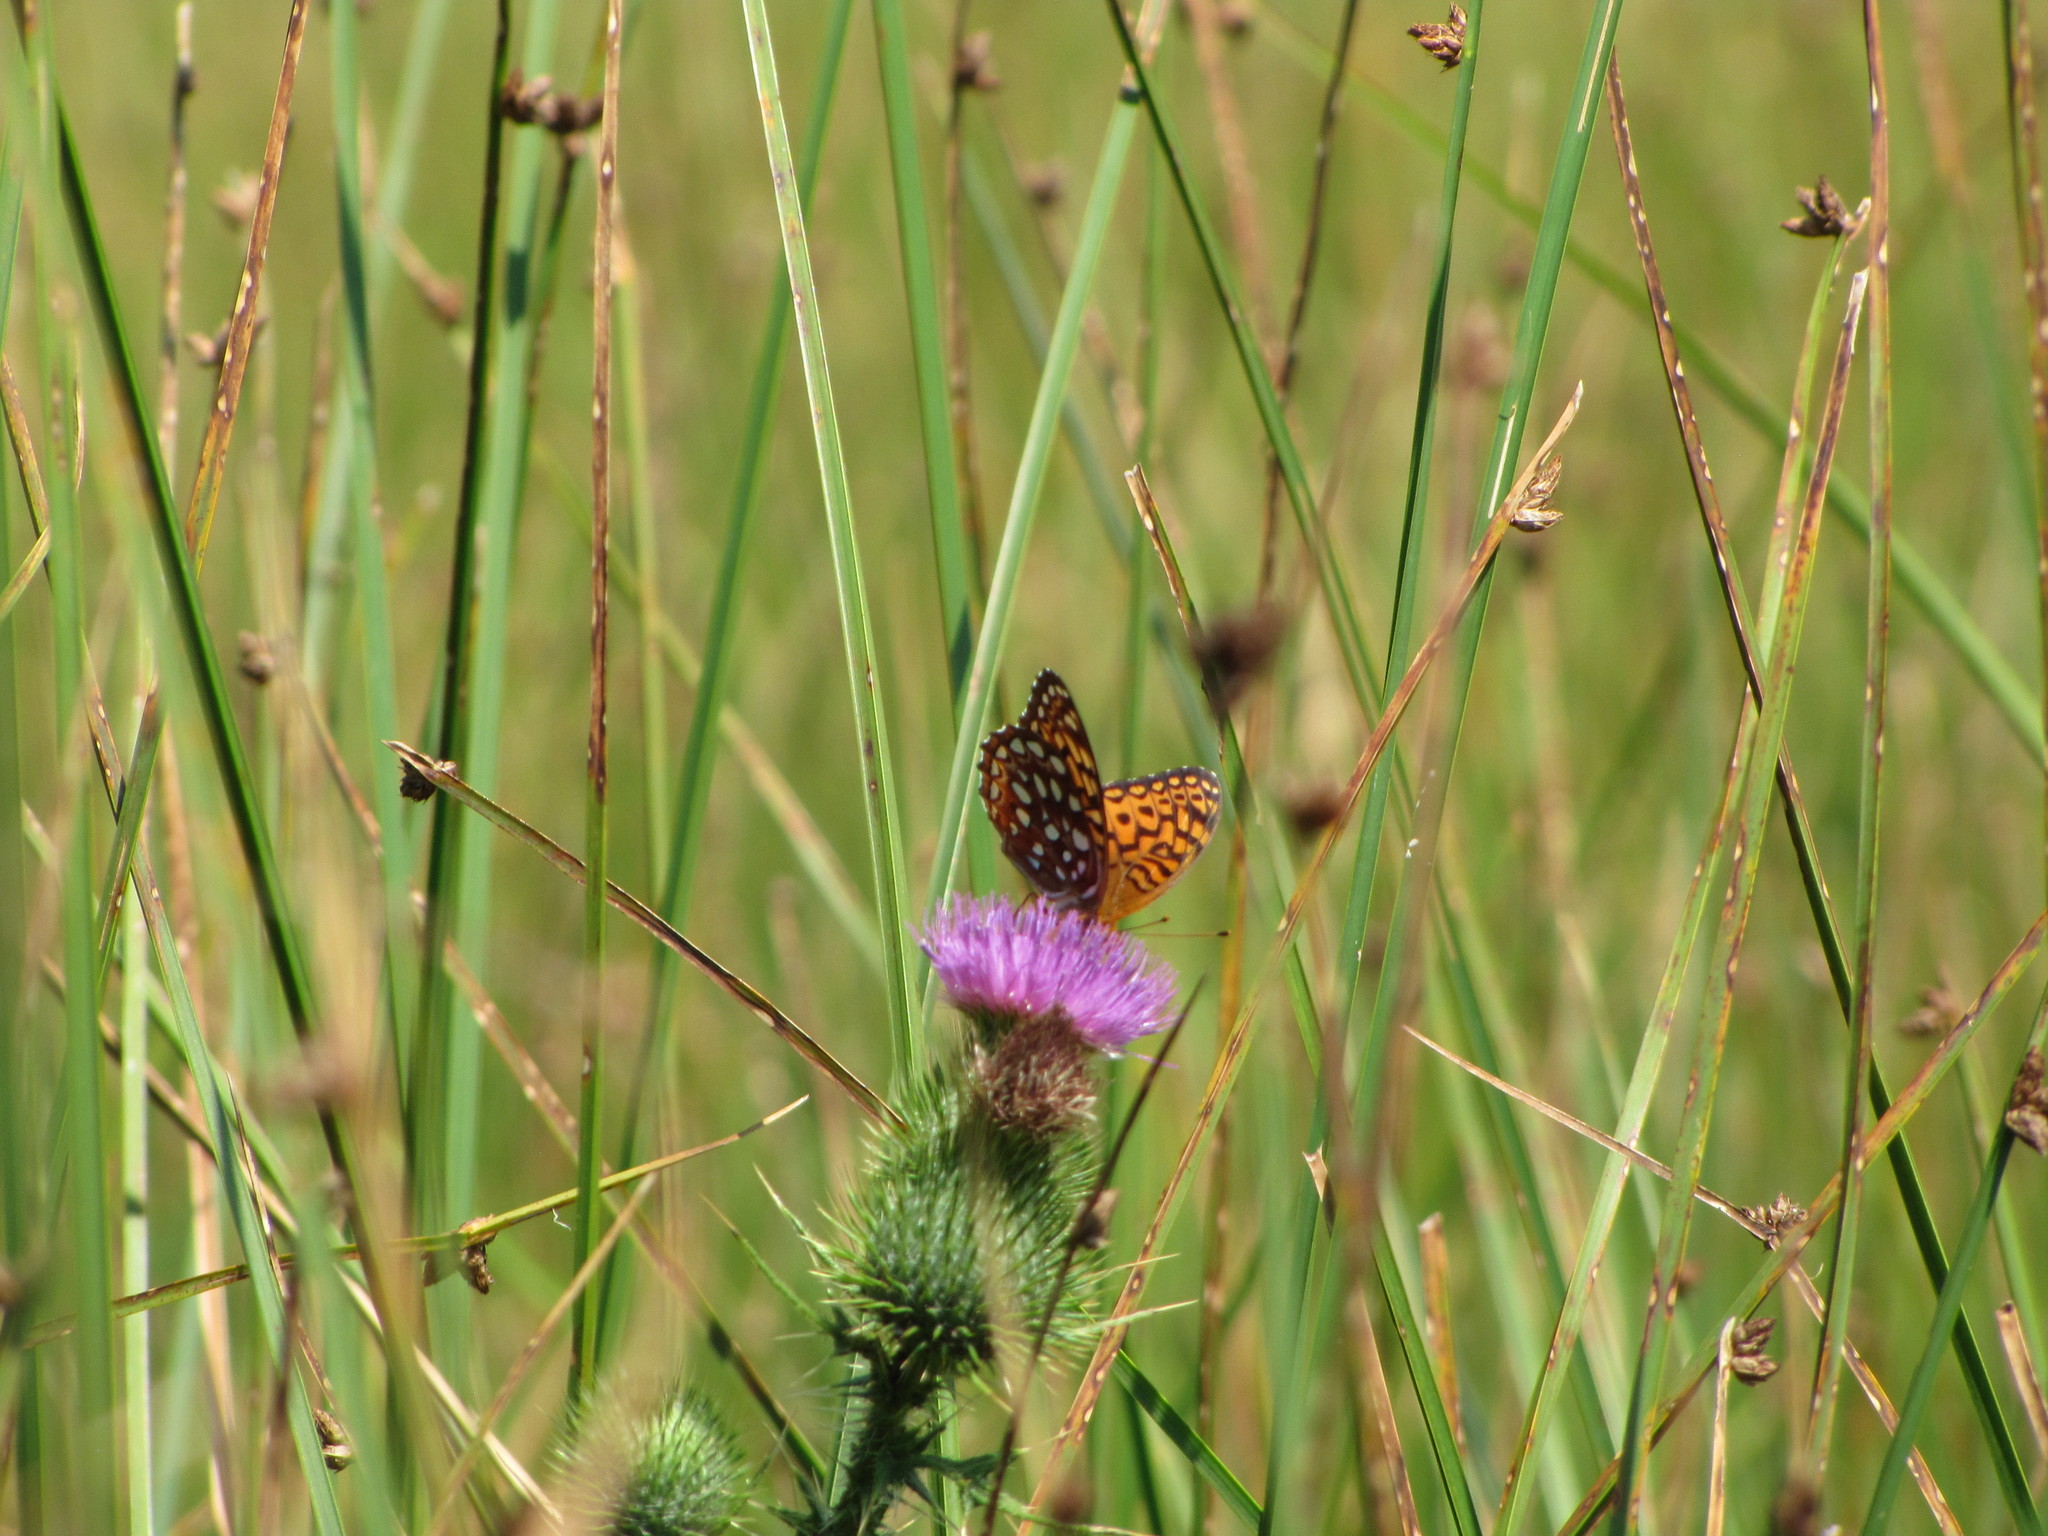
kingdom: Animalia
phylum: Arthropoda
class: Insecta
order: Lepidoptera
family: Nymphalidae
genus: Speyeria
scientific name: Speyeria aphrodite
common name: Aphrodite friitllary
